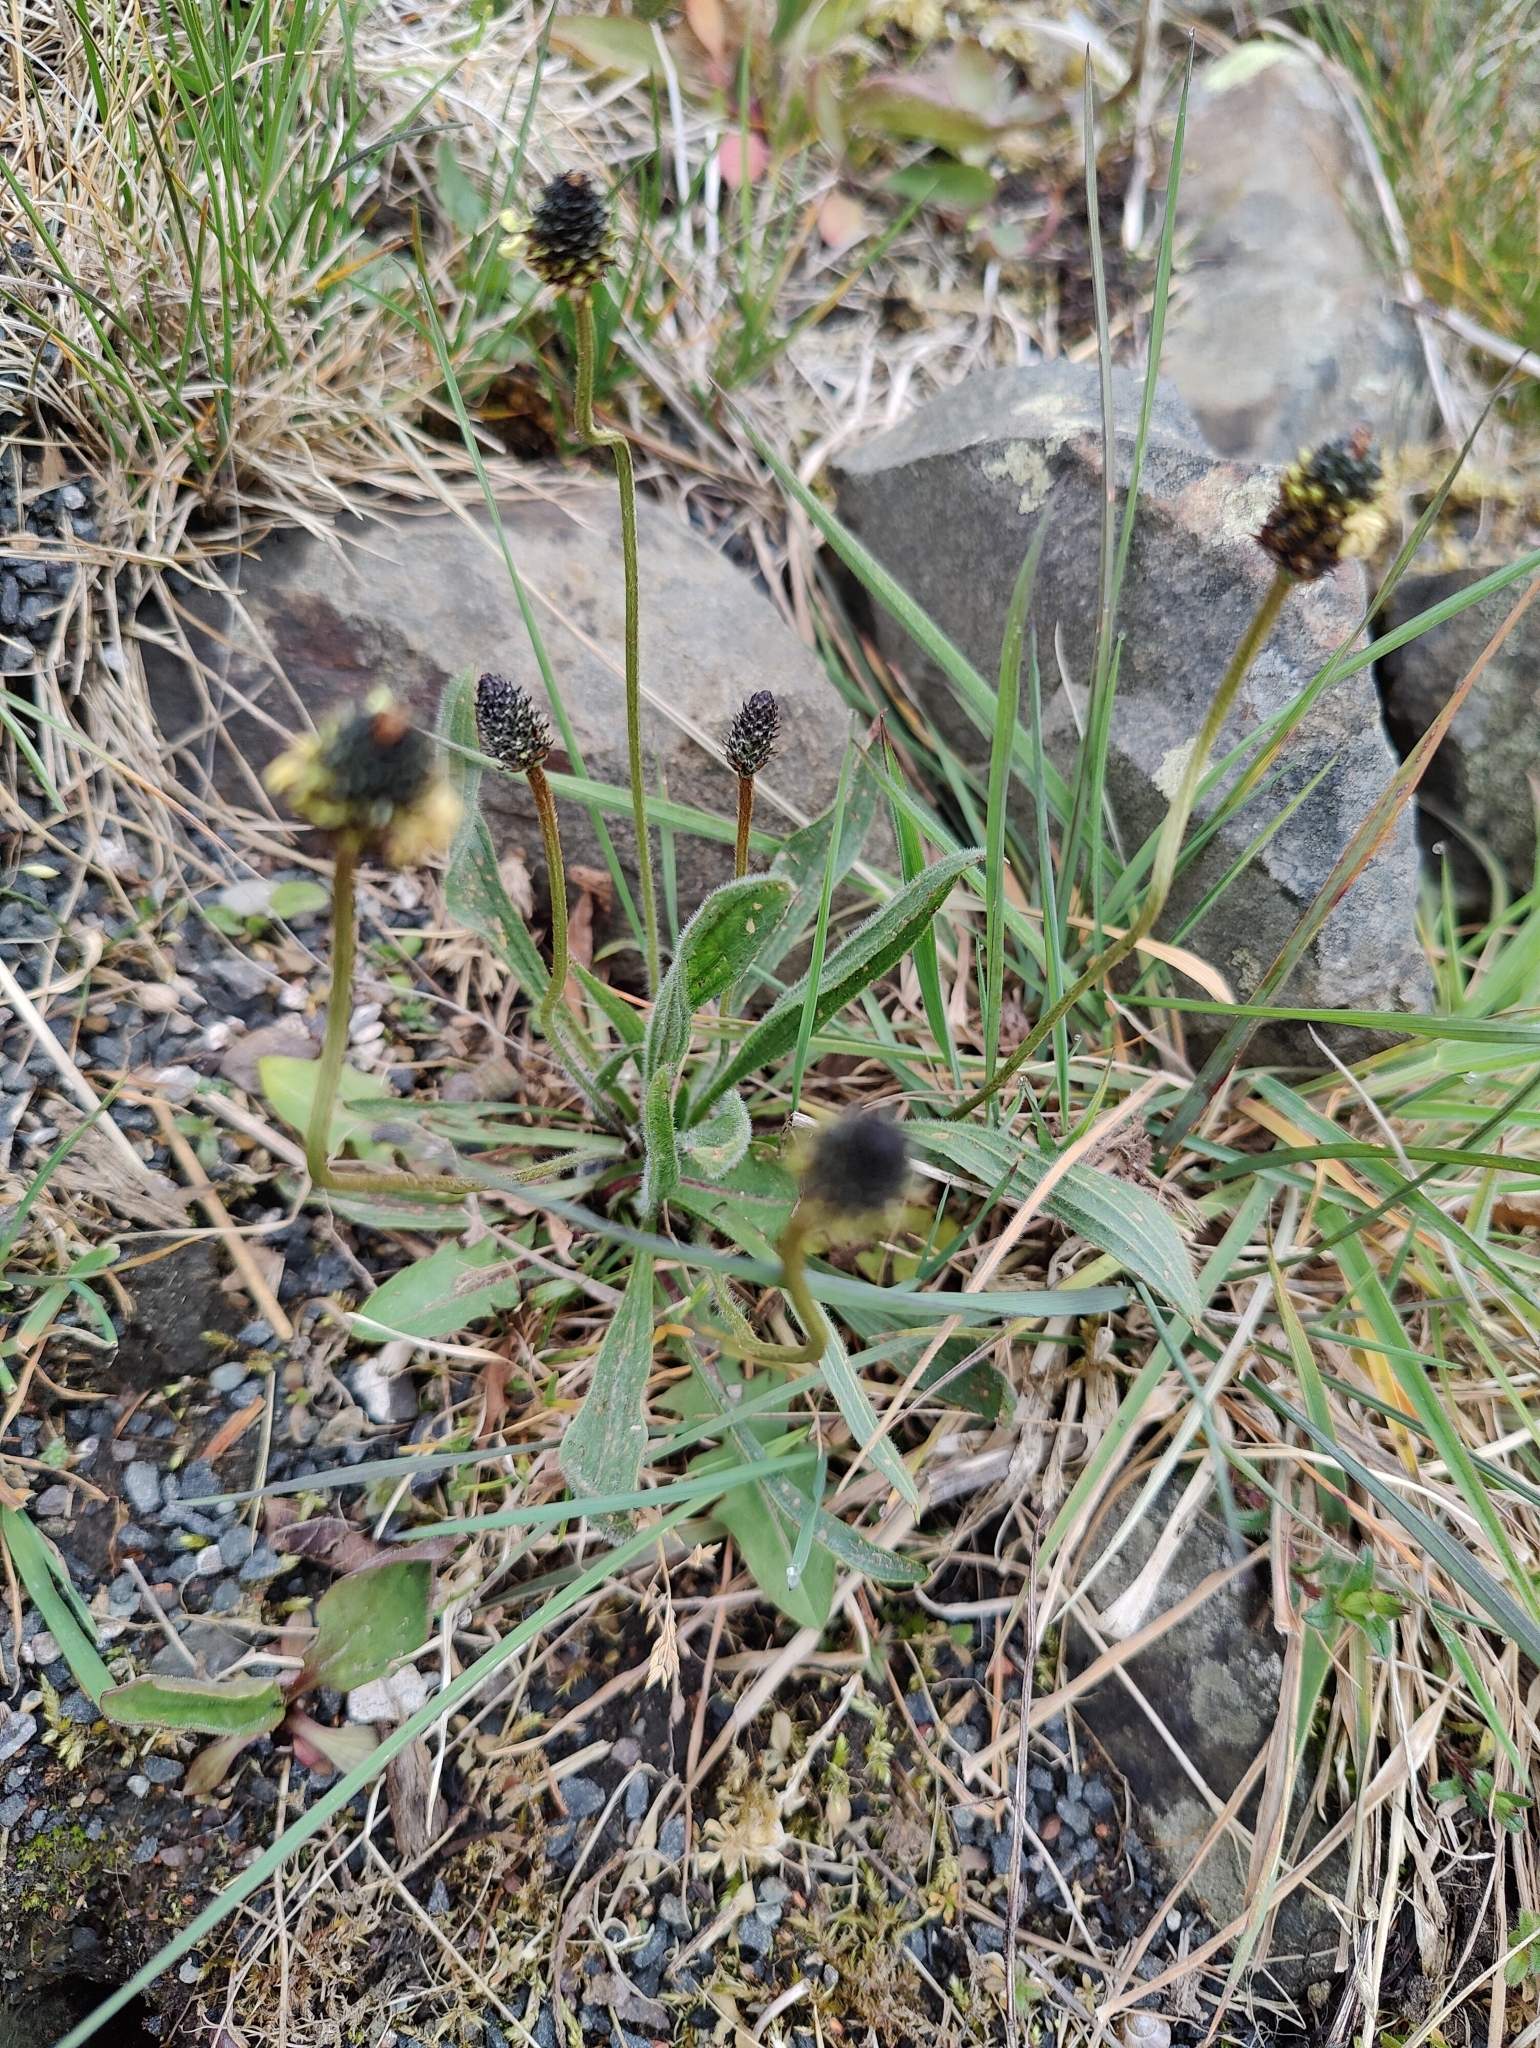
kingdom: Plantae
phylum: Tracheophyta
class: Magnoliopsida
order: Lamiales
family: Plantaginaceae
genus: Plantago
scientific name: Plantago lanceolata
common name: Ribwort plantain
